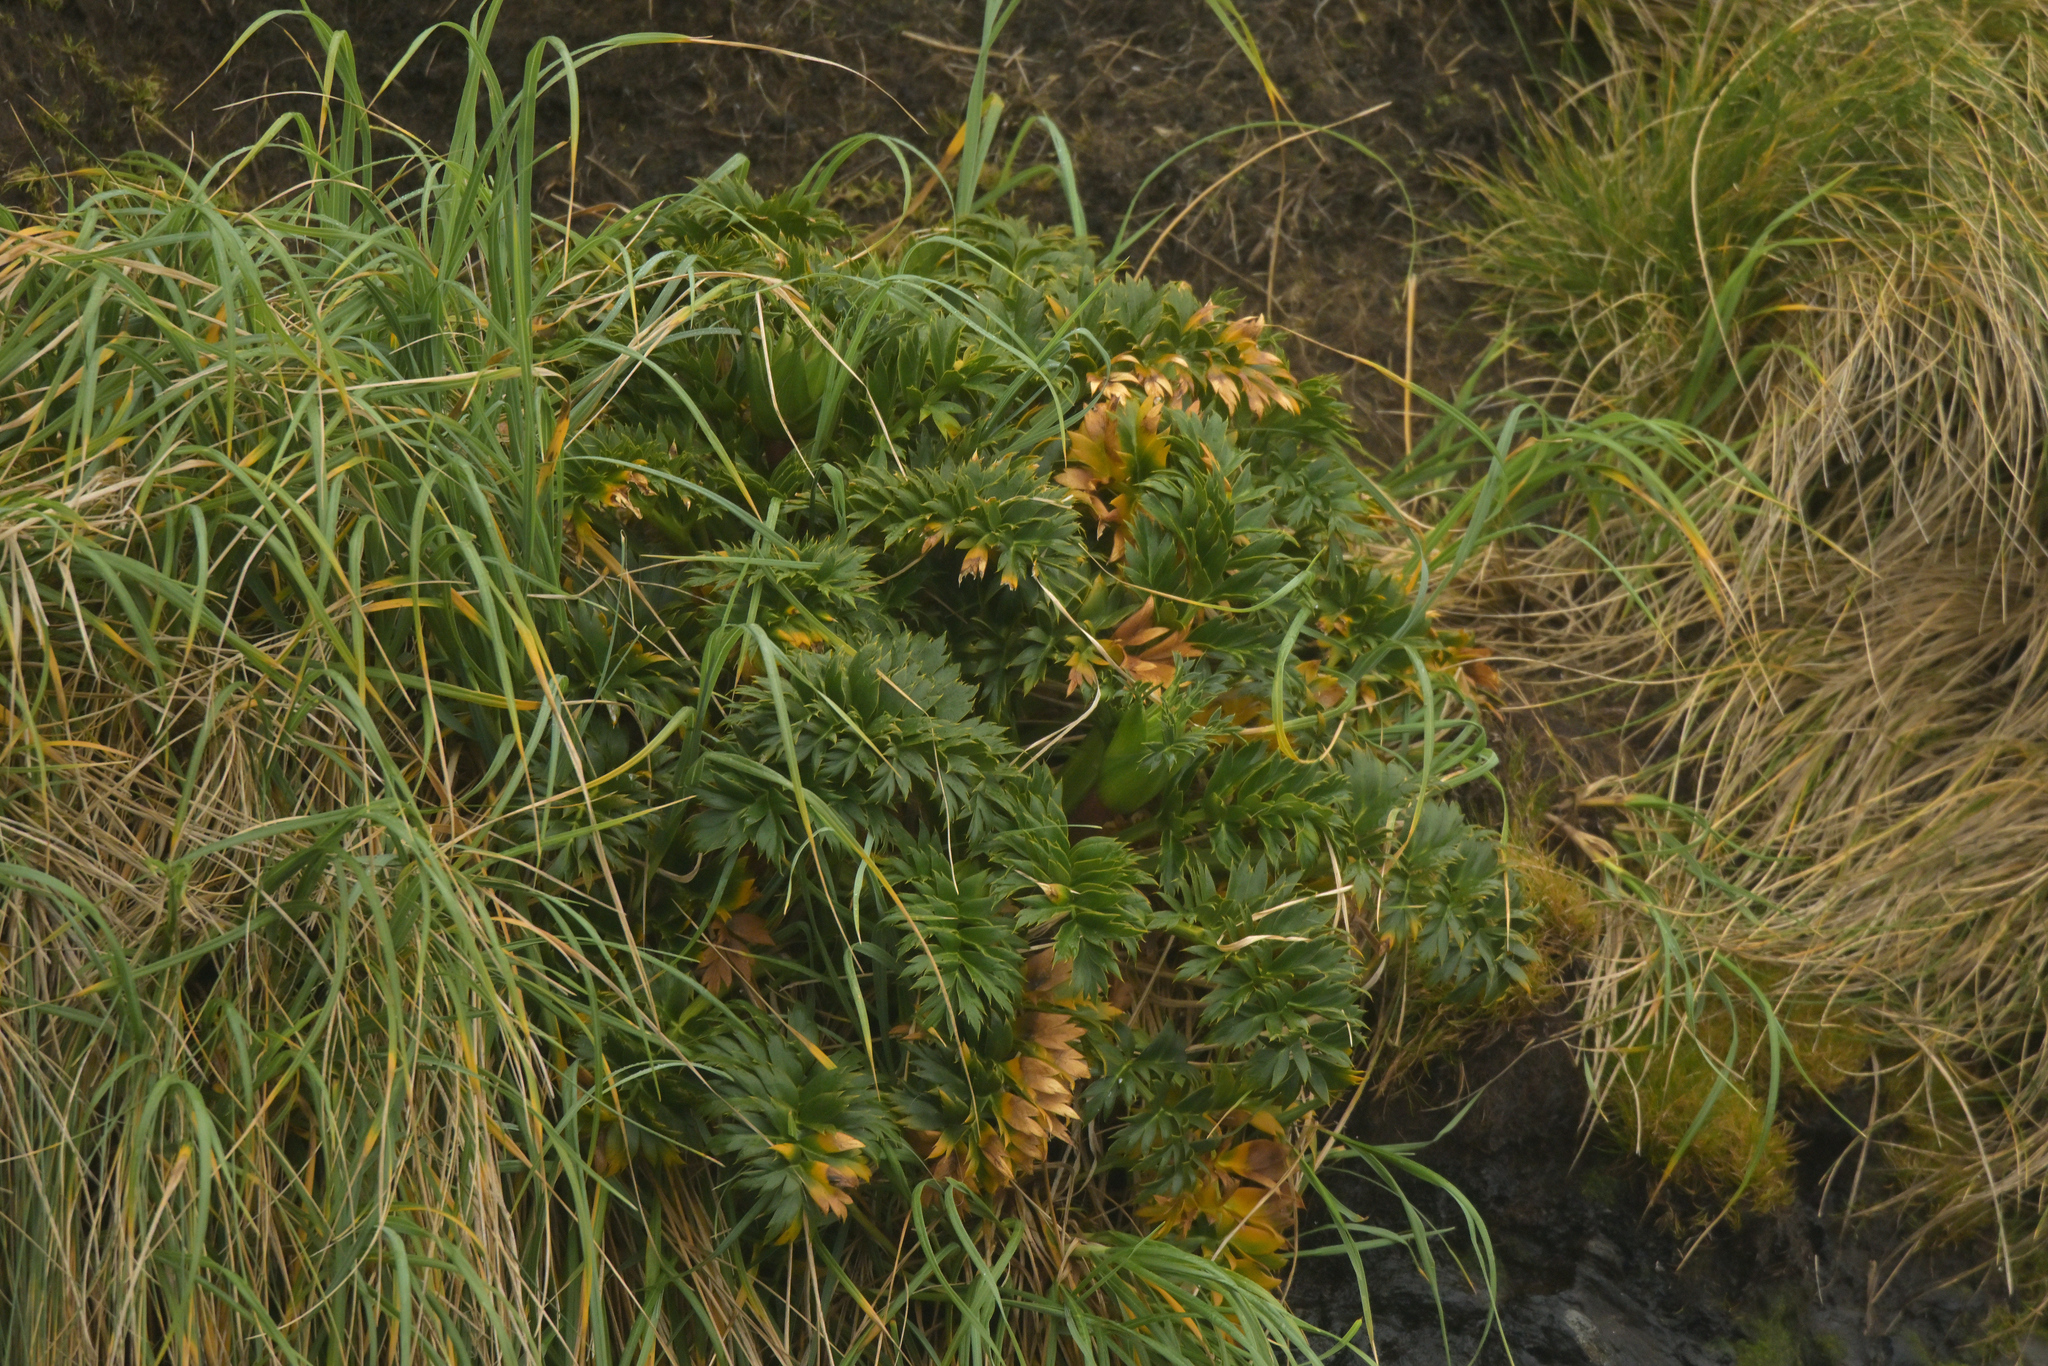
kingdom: Plantae
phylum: Tracheophyta
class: Magnoliopsida
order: Apiales
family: Apiaceae
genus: Anisotome
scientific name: Anisotome latifolia
